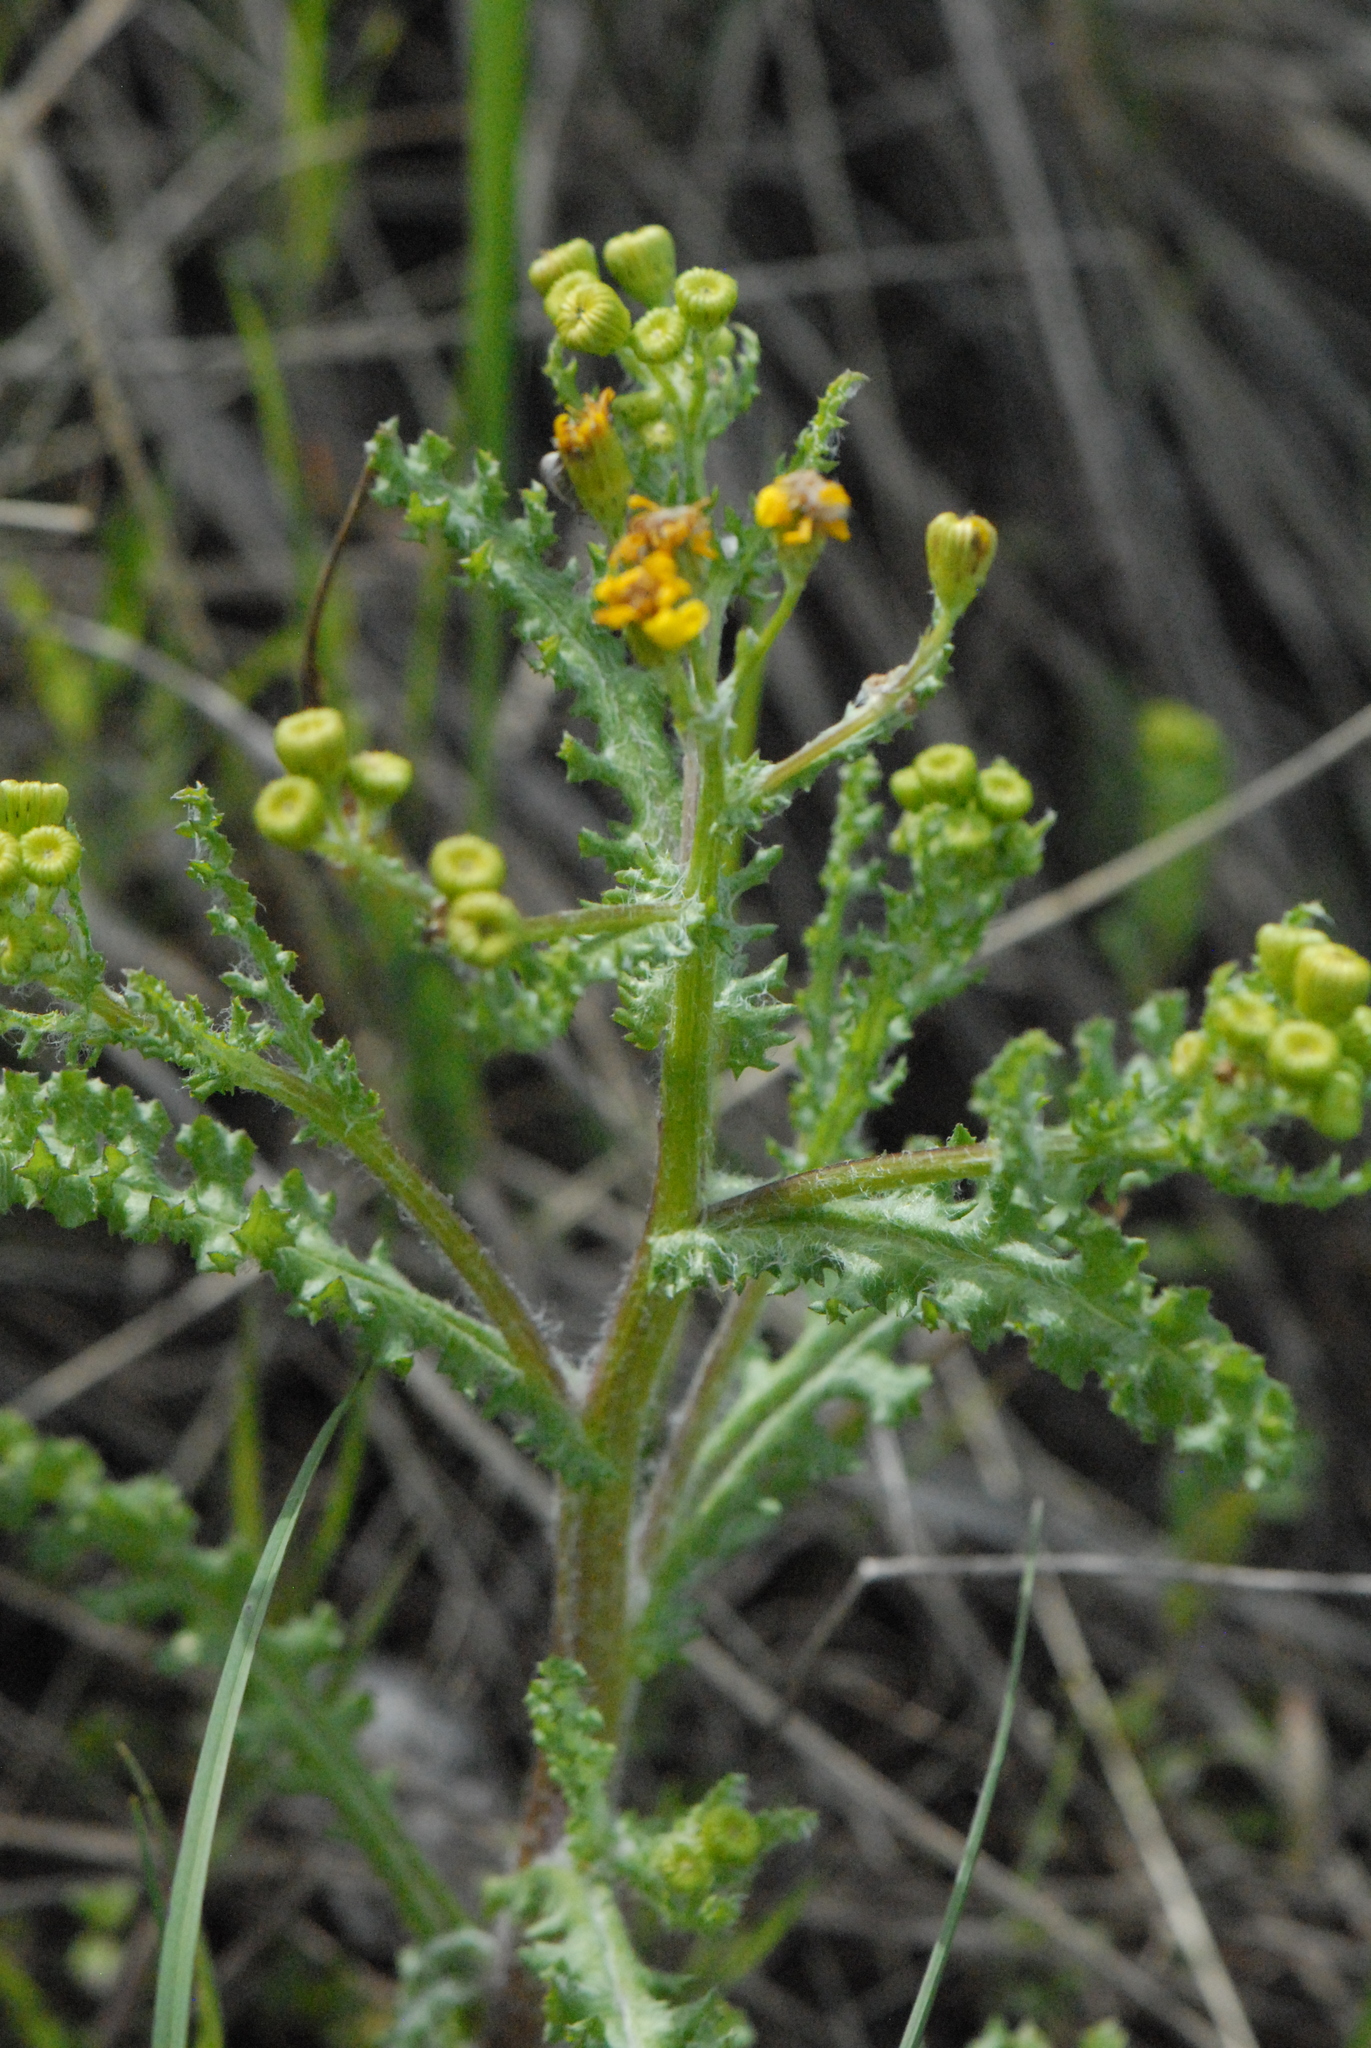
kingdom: Plantae
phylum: Tracheophyta
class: Magnoliopsida
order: Asterales
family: Asteraceae
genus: Senecio
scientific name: Senecio vernalis
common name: Eastern groundsel
